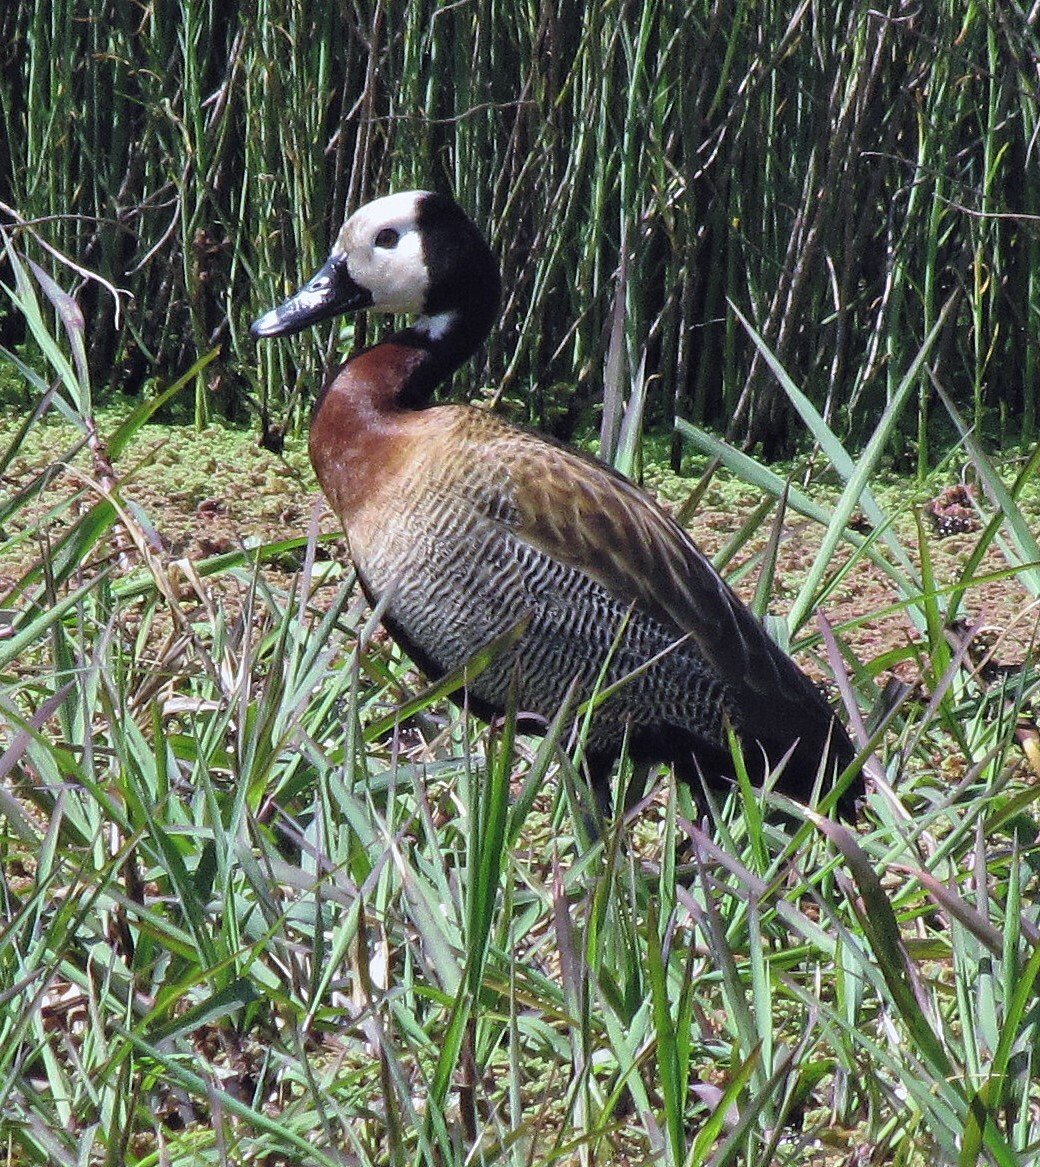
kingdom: Animalia
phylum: Chordata
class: Aves
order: Anseriformes
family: Anatidae
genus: Dendrocygna
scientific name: Dendrocygna viduata
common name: White-faced whistling duck
